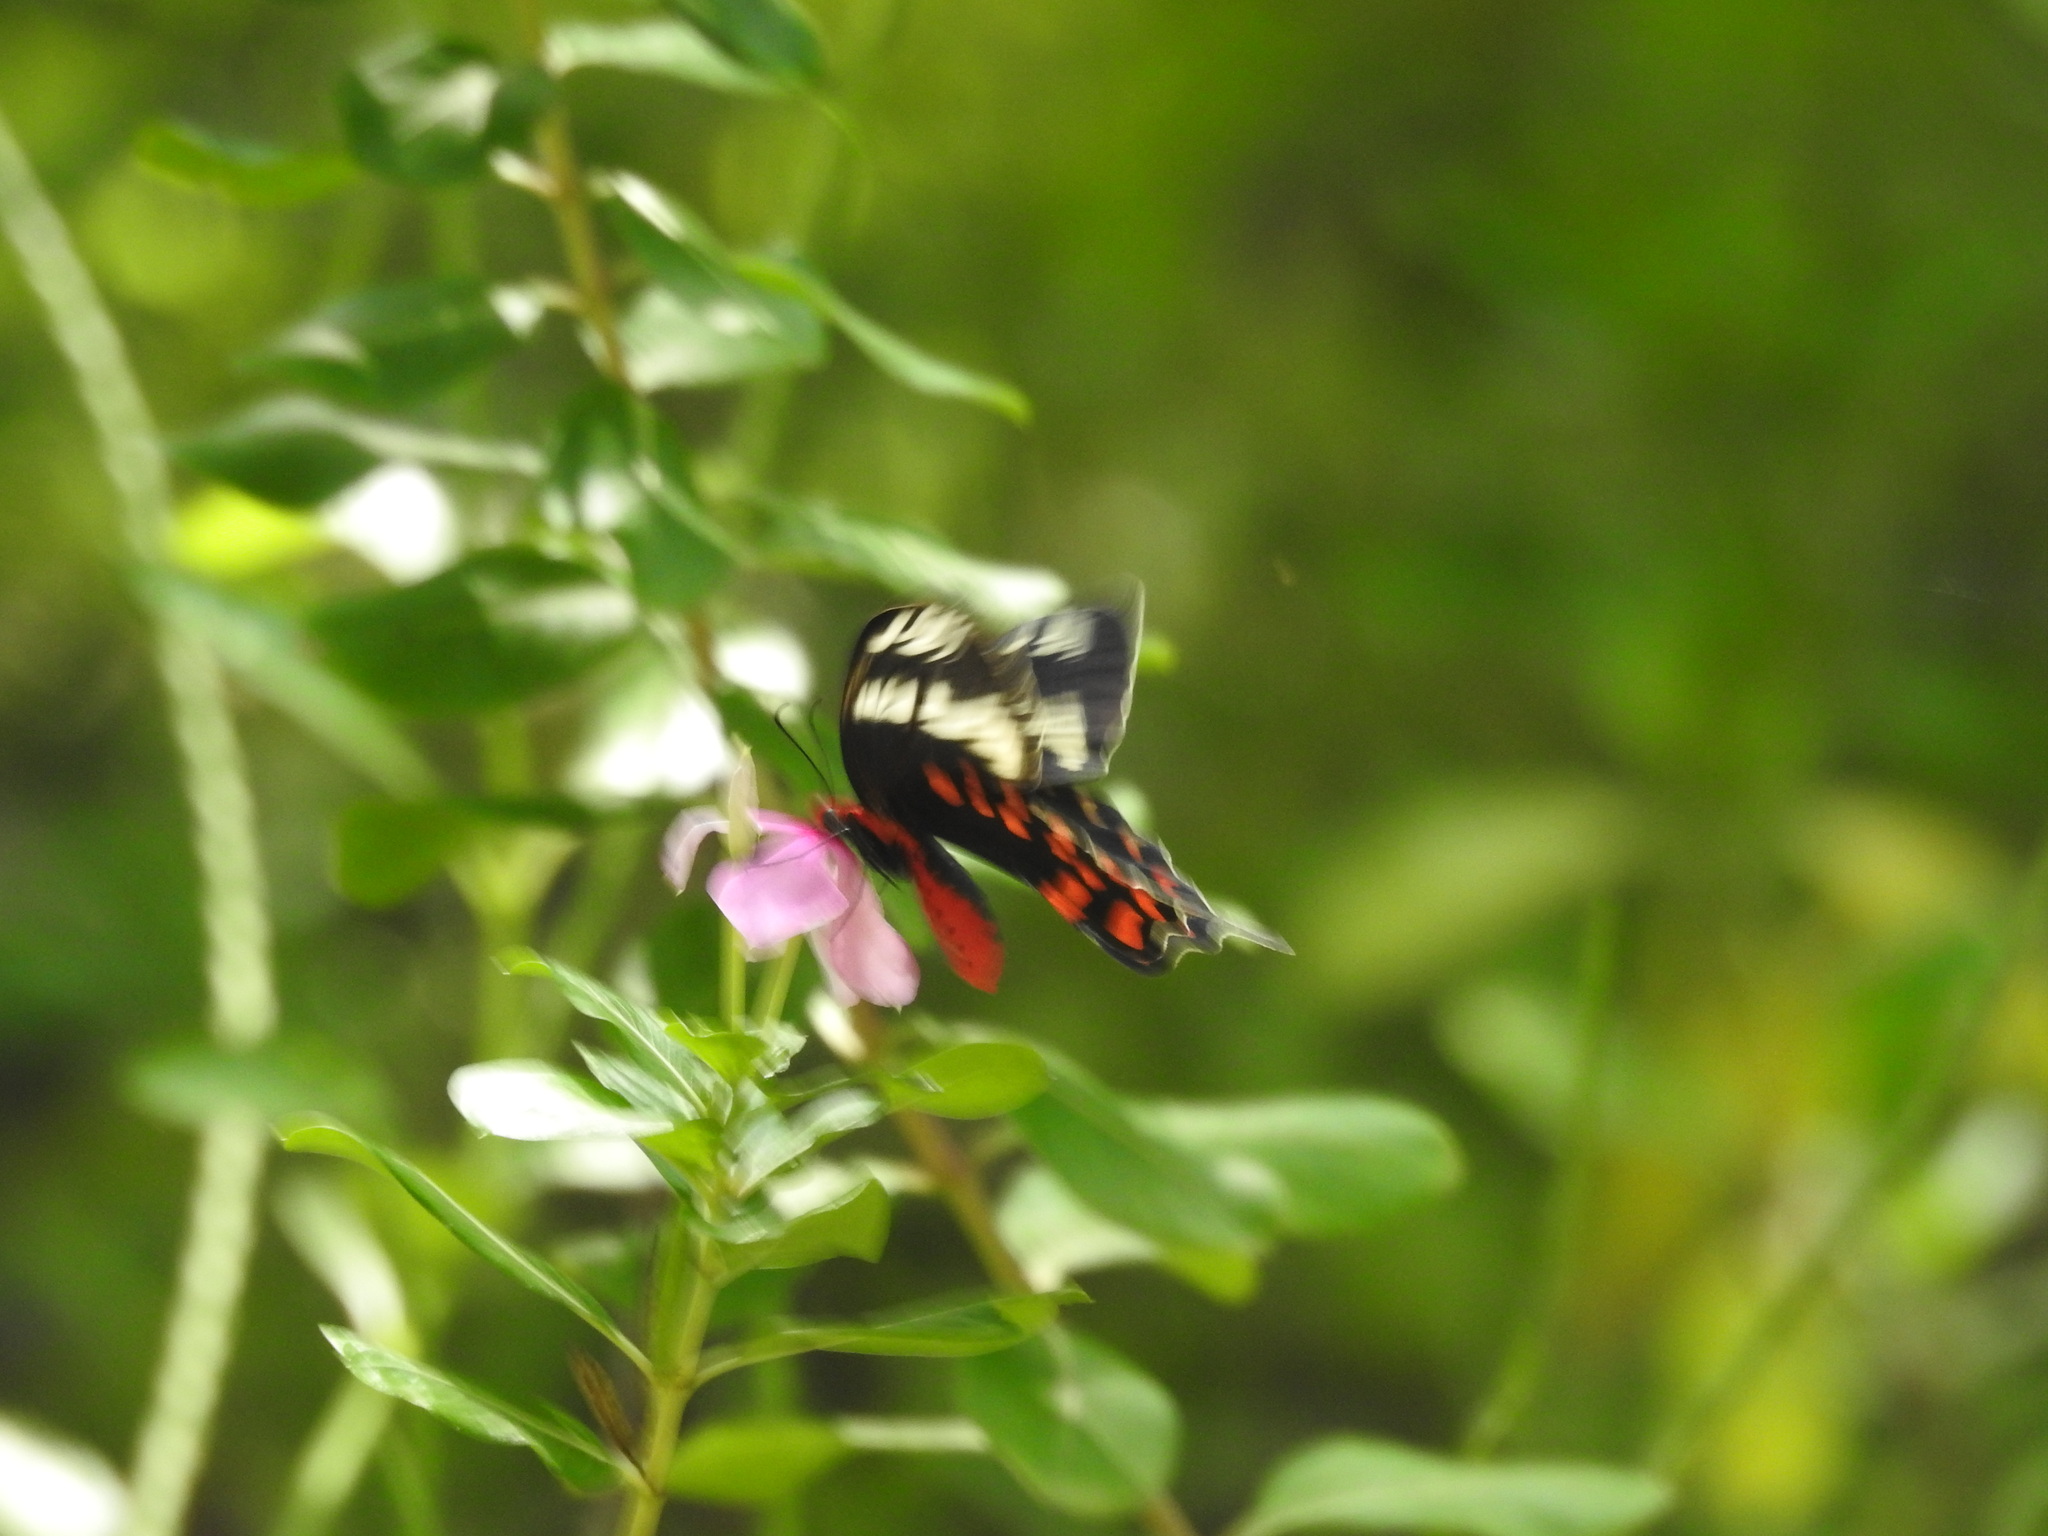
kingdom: Animalia
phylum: Arthropoda
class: Insecta
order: Lepidoptera
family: Papilionidae
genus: Pachliopta
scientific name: Pachliopta hector
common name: Crimson rose
